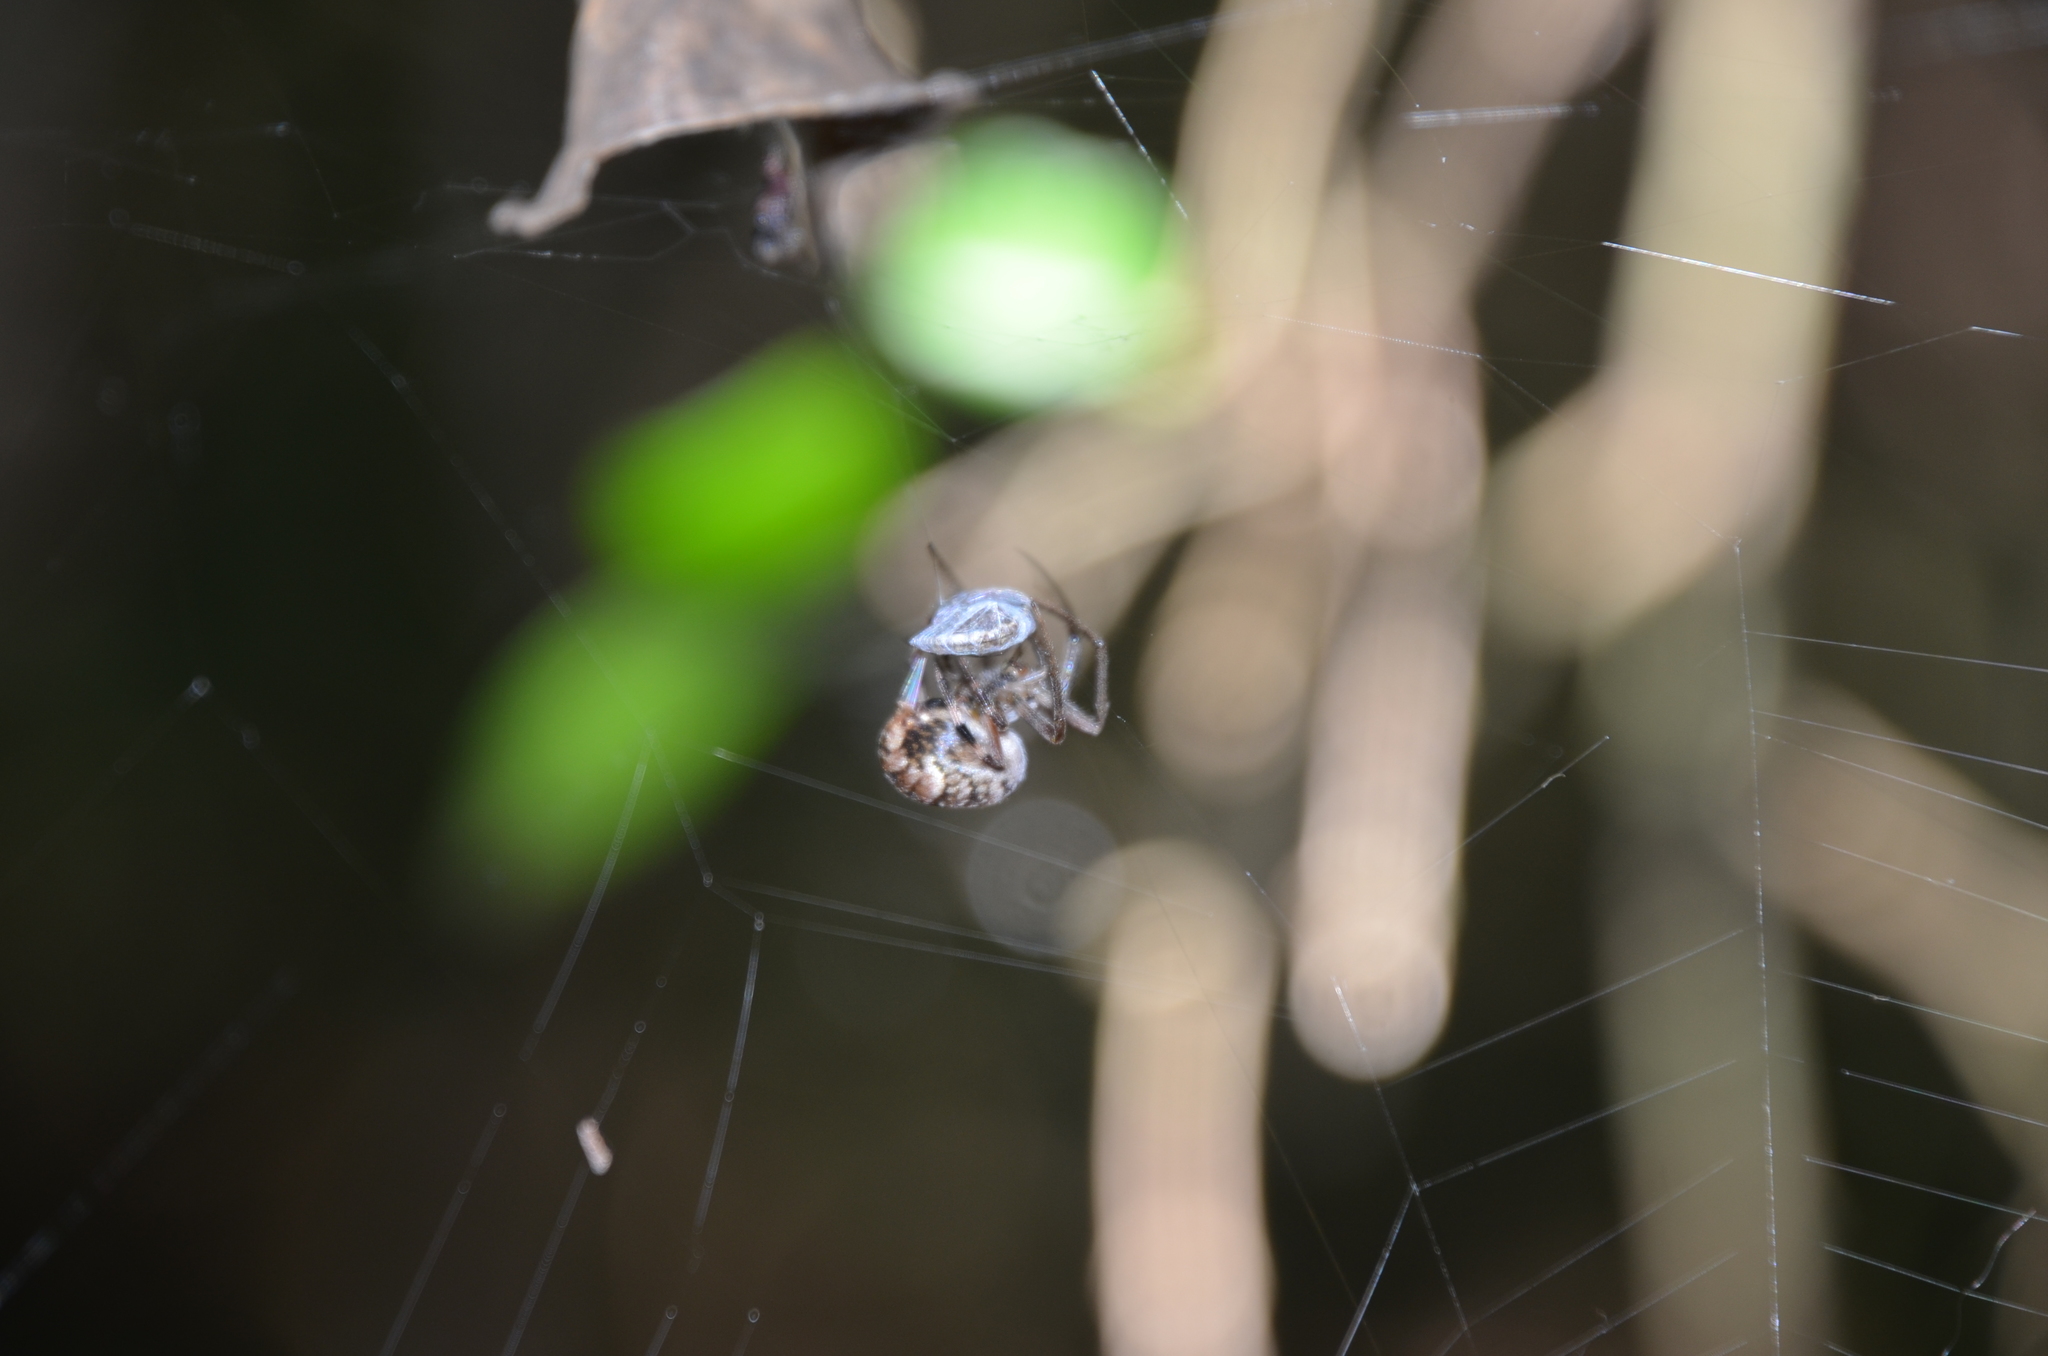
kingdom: Animalia
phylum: Arthropoda
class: Arachnida
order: Araneae
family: Araneidae
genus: Araneus
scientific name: Araneus omnicolor
